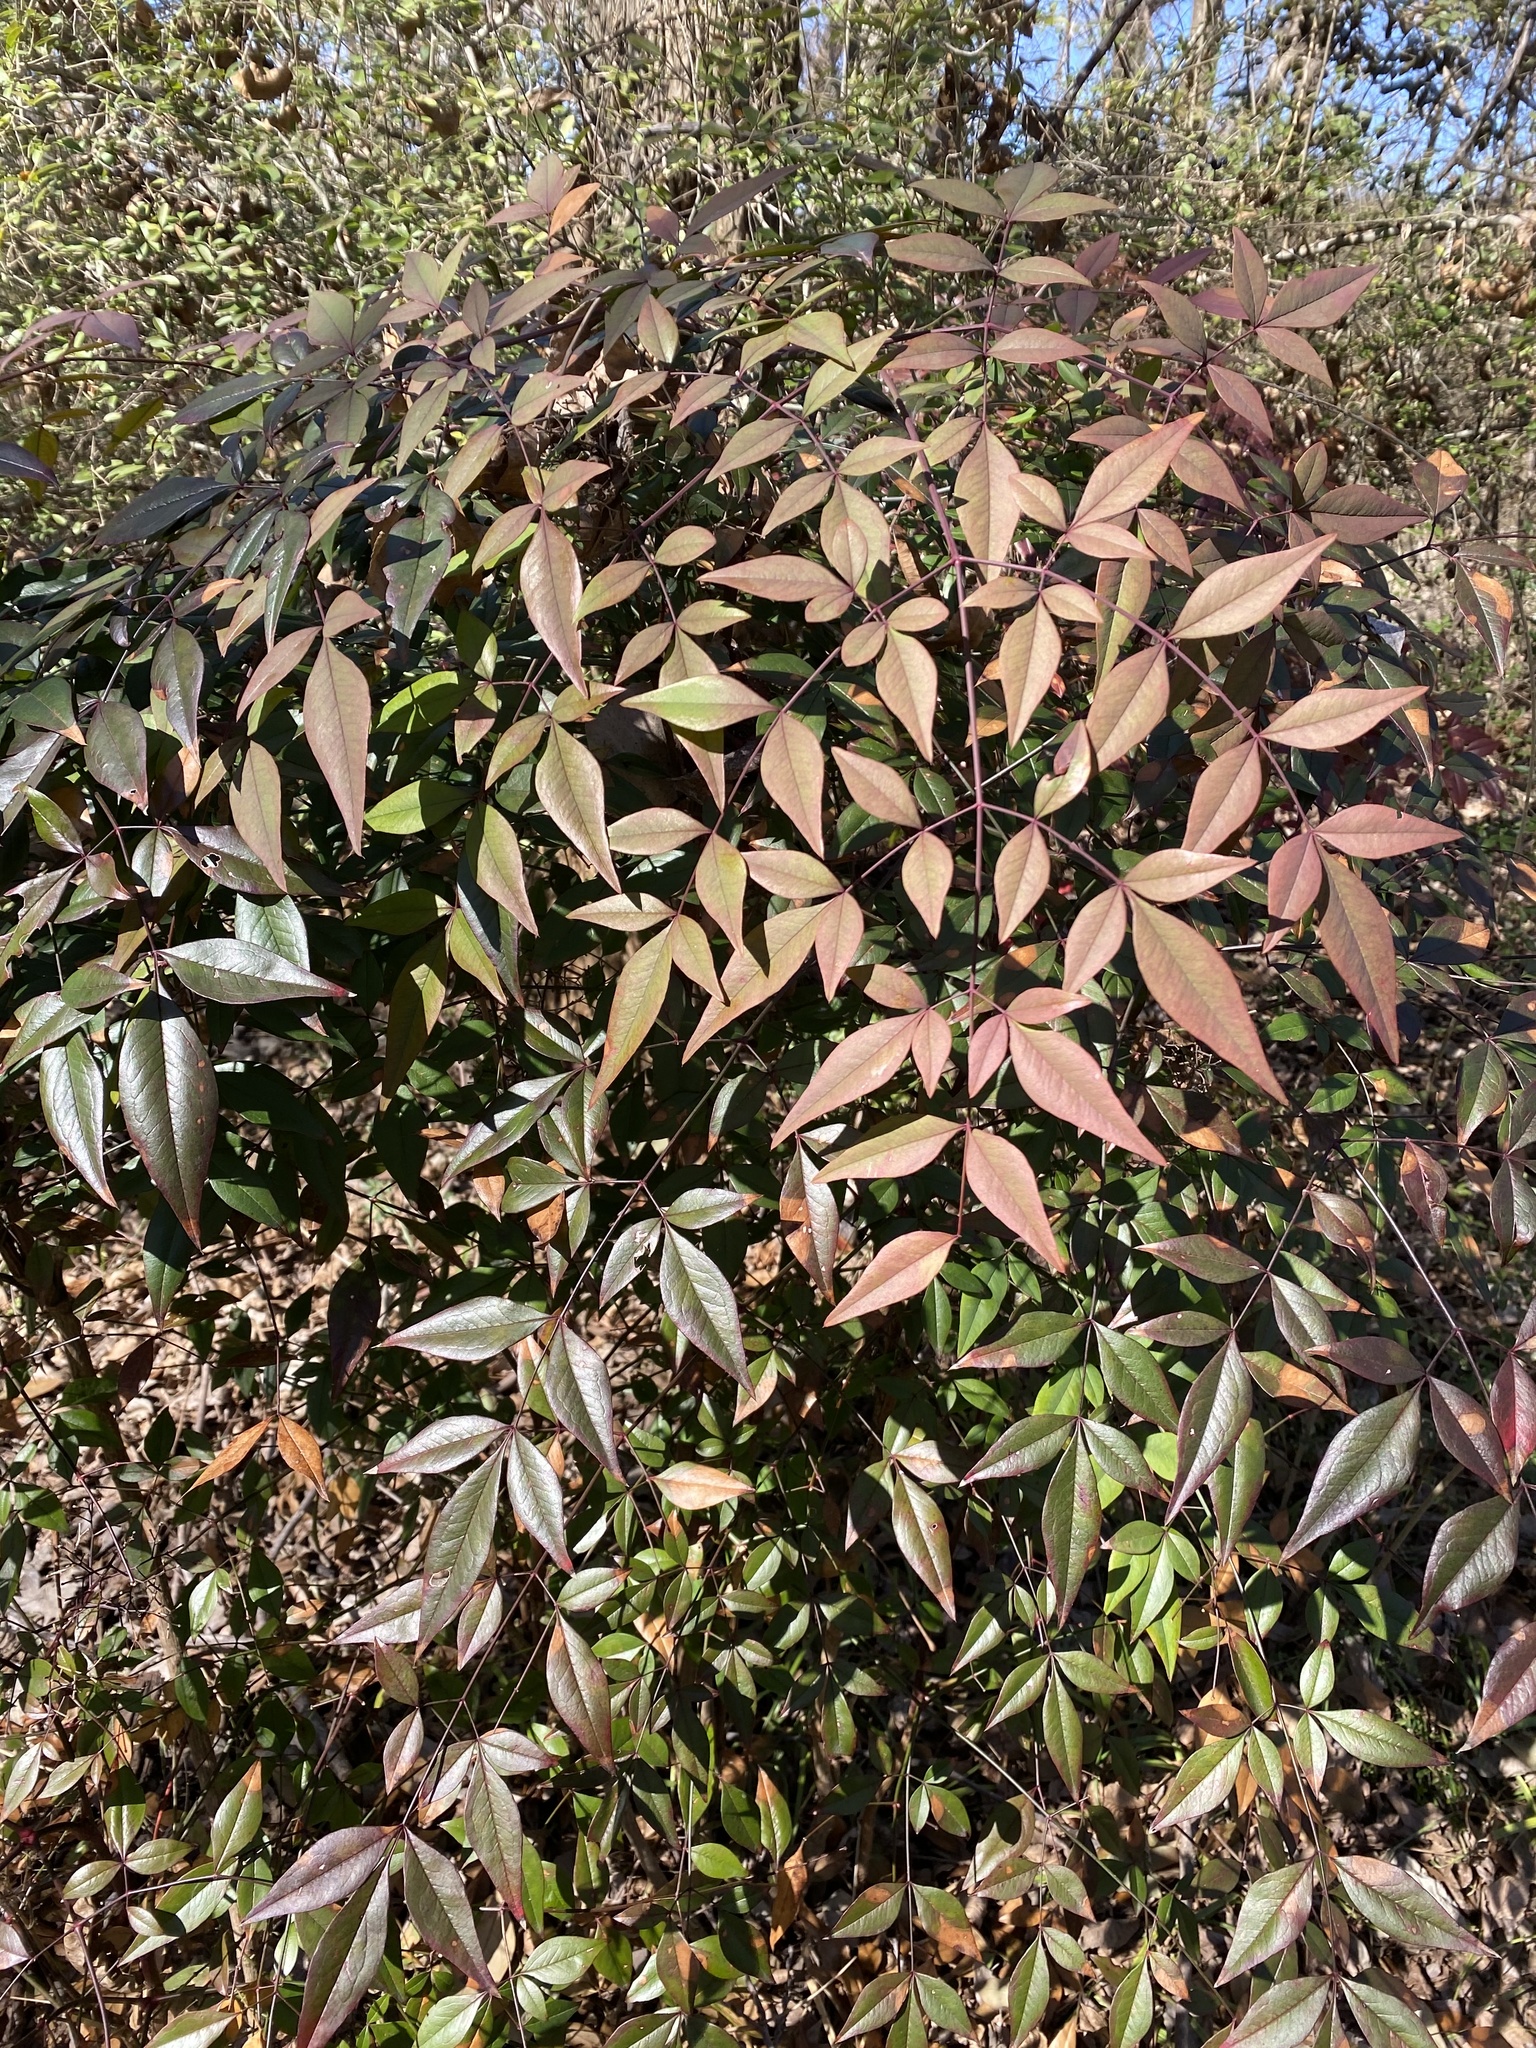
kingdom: Plantae
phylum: Tracheophyta
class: Magnoliopsida
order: Ranunculales
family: Berberidaceae
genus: Nandina
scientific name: Nandina domestica
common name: Sacred bamboo
